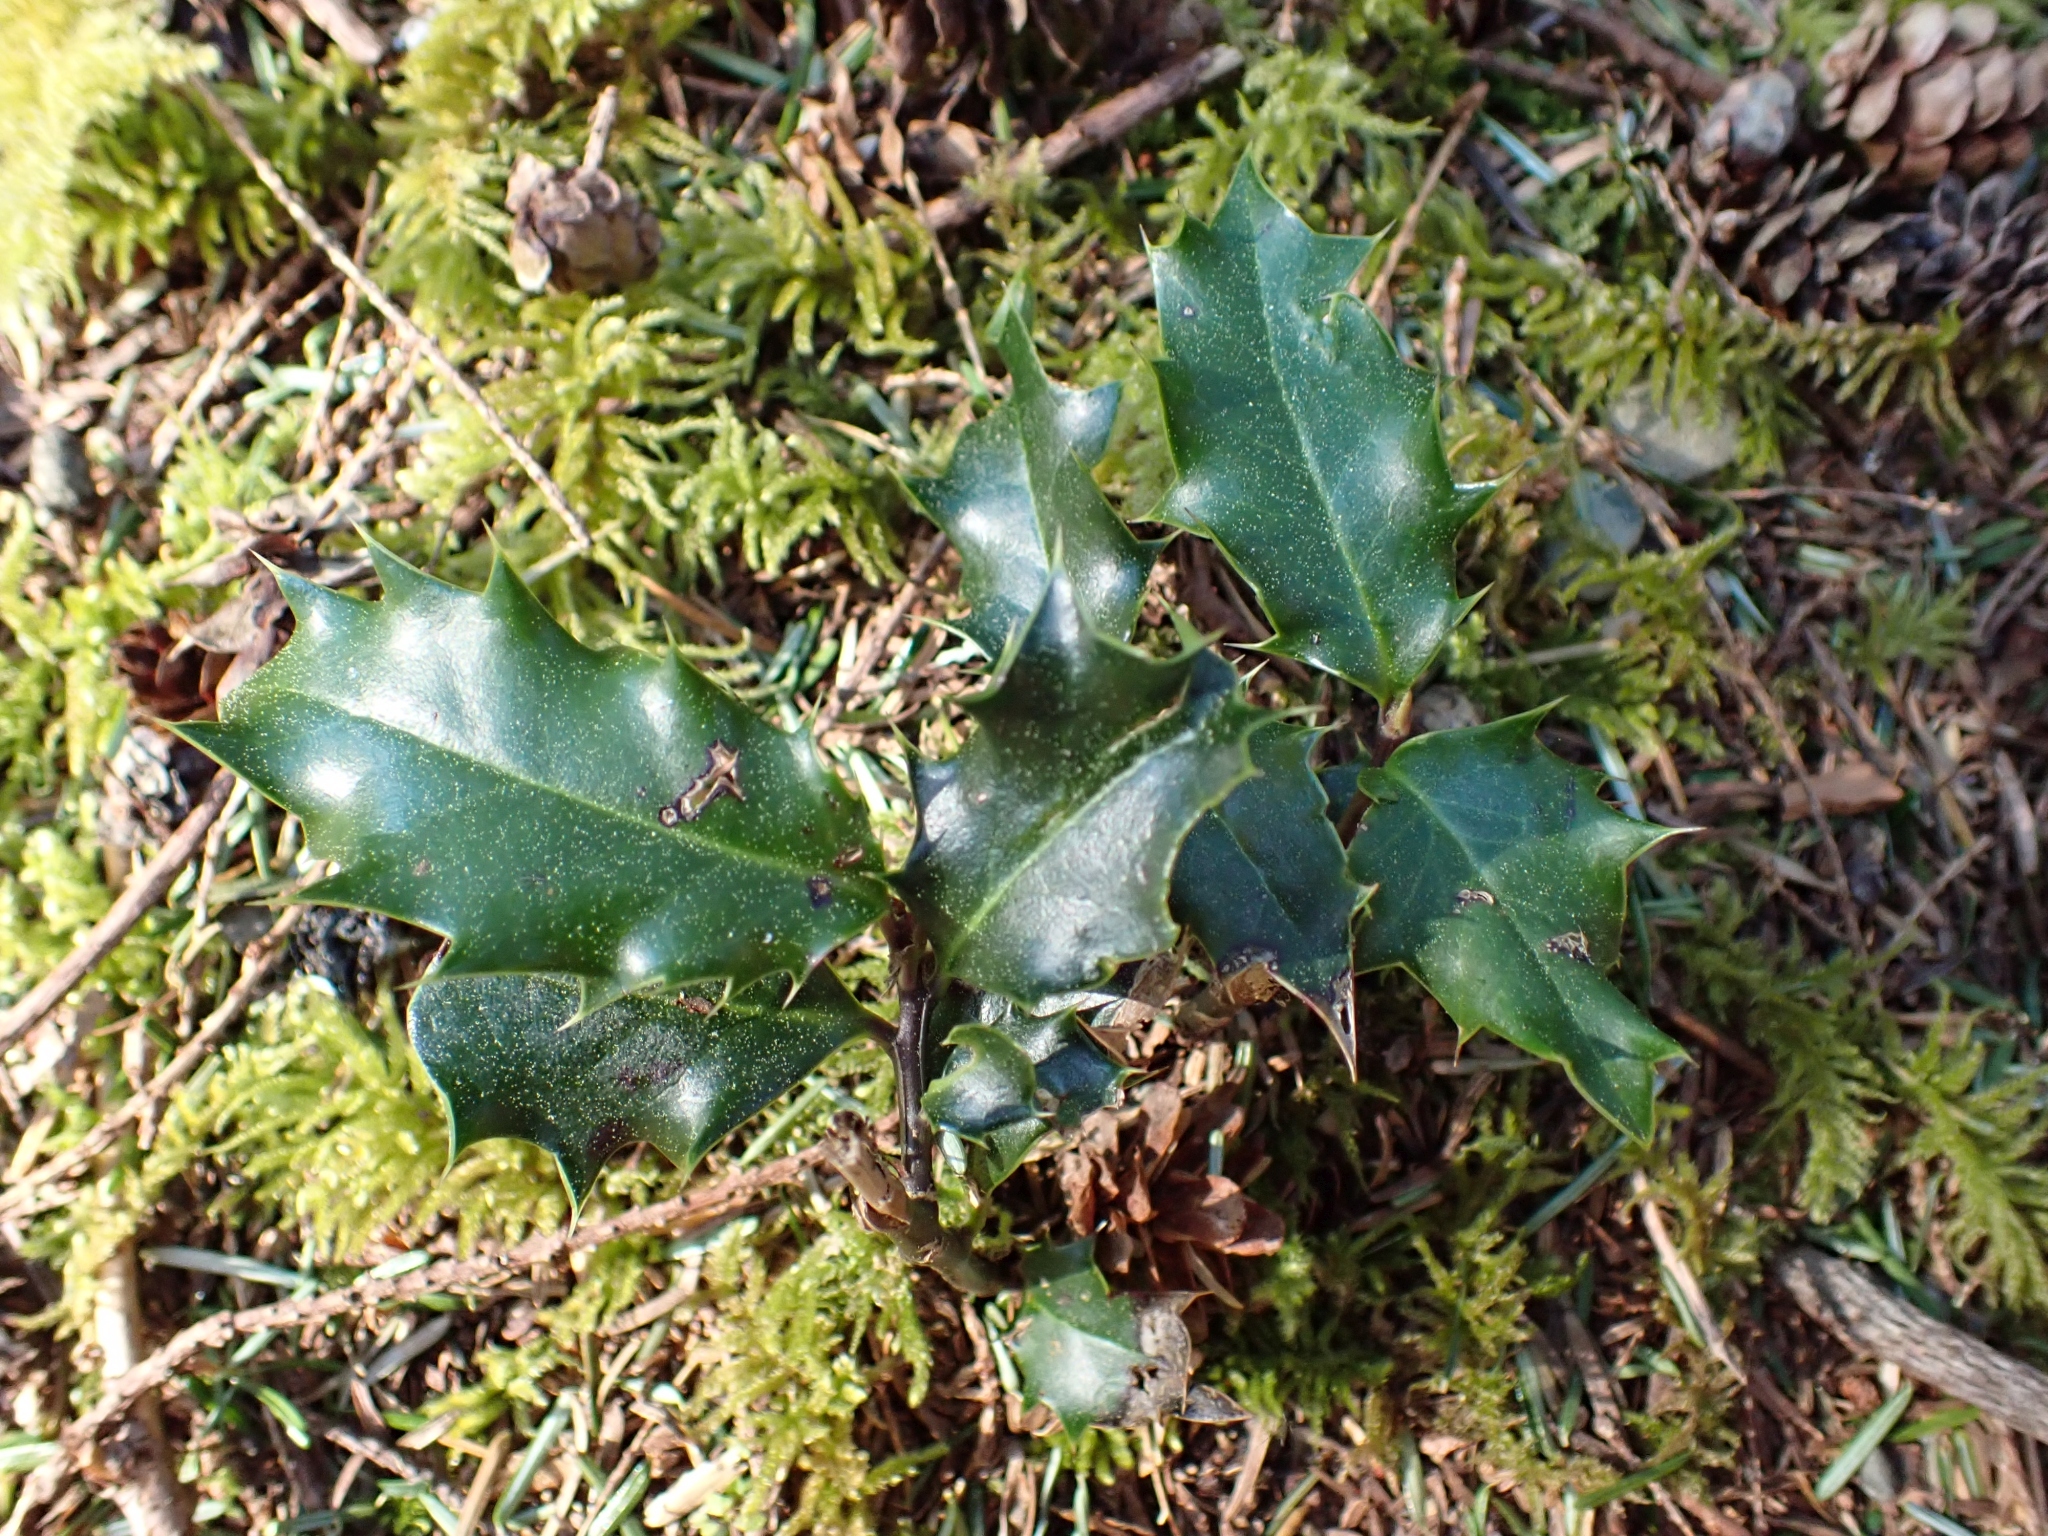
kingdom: Plantae
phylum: Tracheophyta
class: Magnoliopsida
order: Aquifoliales
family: Aquifoliaceae
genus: Ilex
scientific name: Ilex aquifolium
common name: English holly
